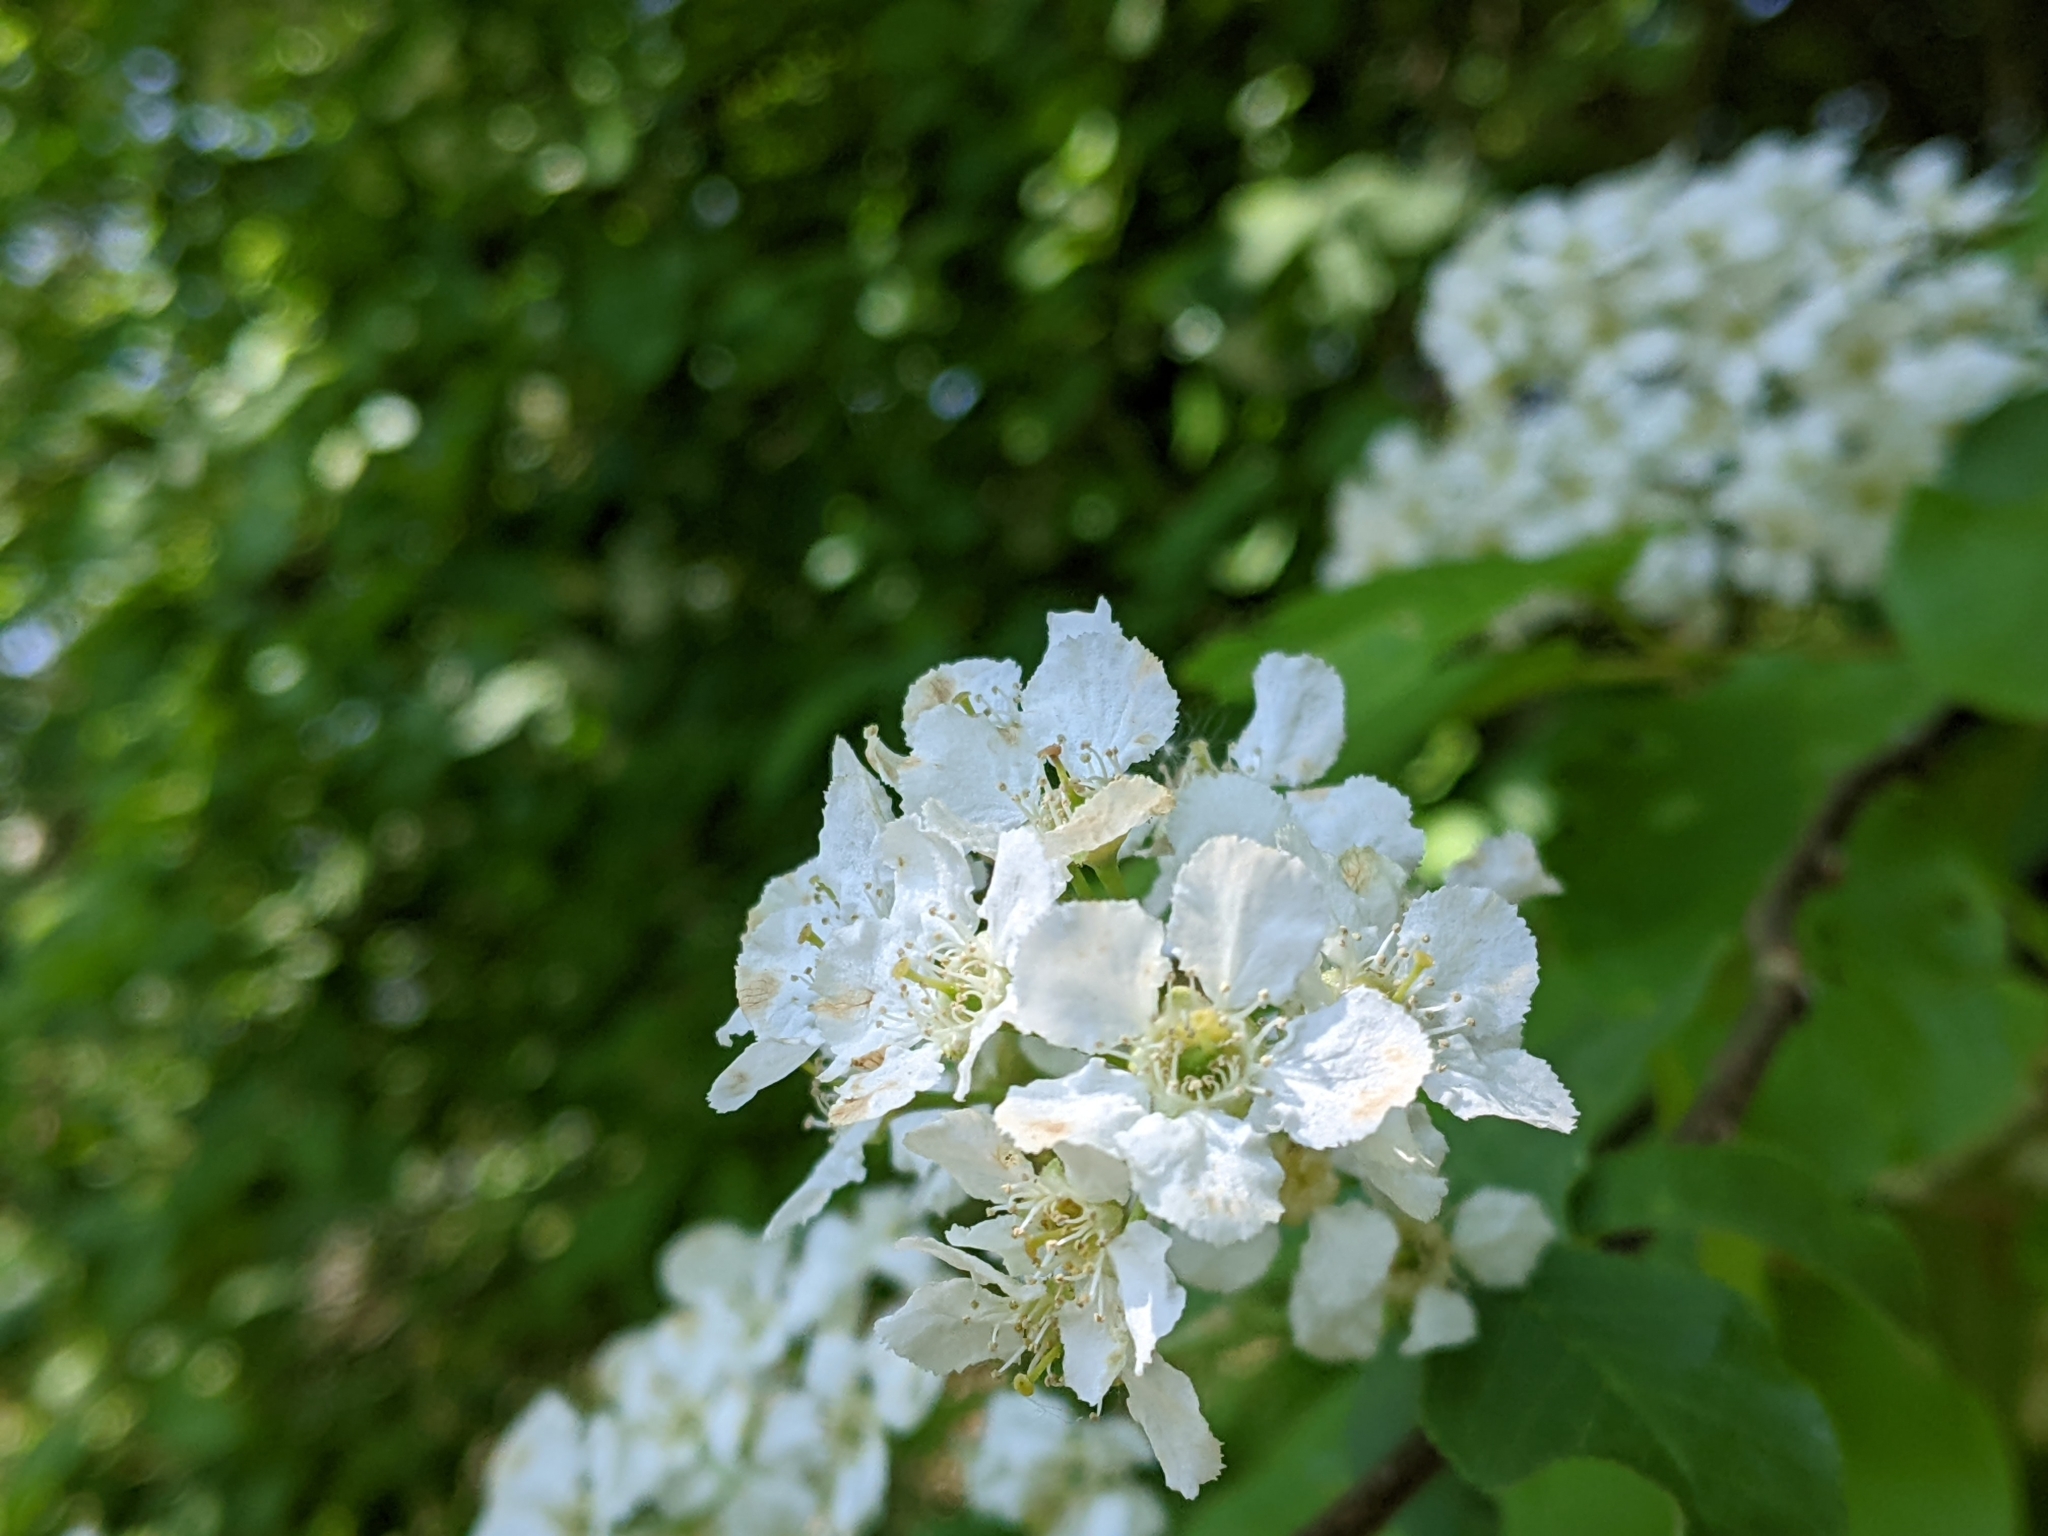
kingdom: Plantae
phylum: Tracheophyta
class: Magnoliopsida
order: Rosales
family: Rosaceae
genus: Prunus
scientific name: Prunus padus
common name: Bird cherry
